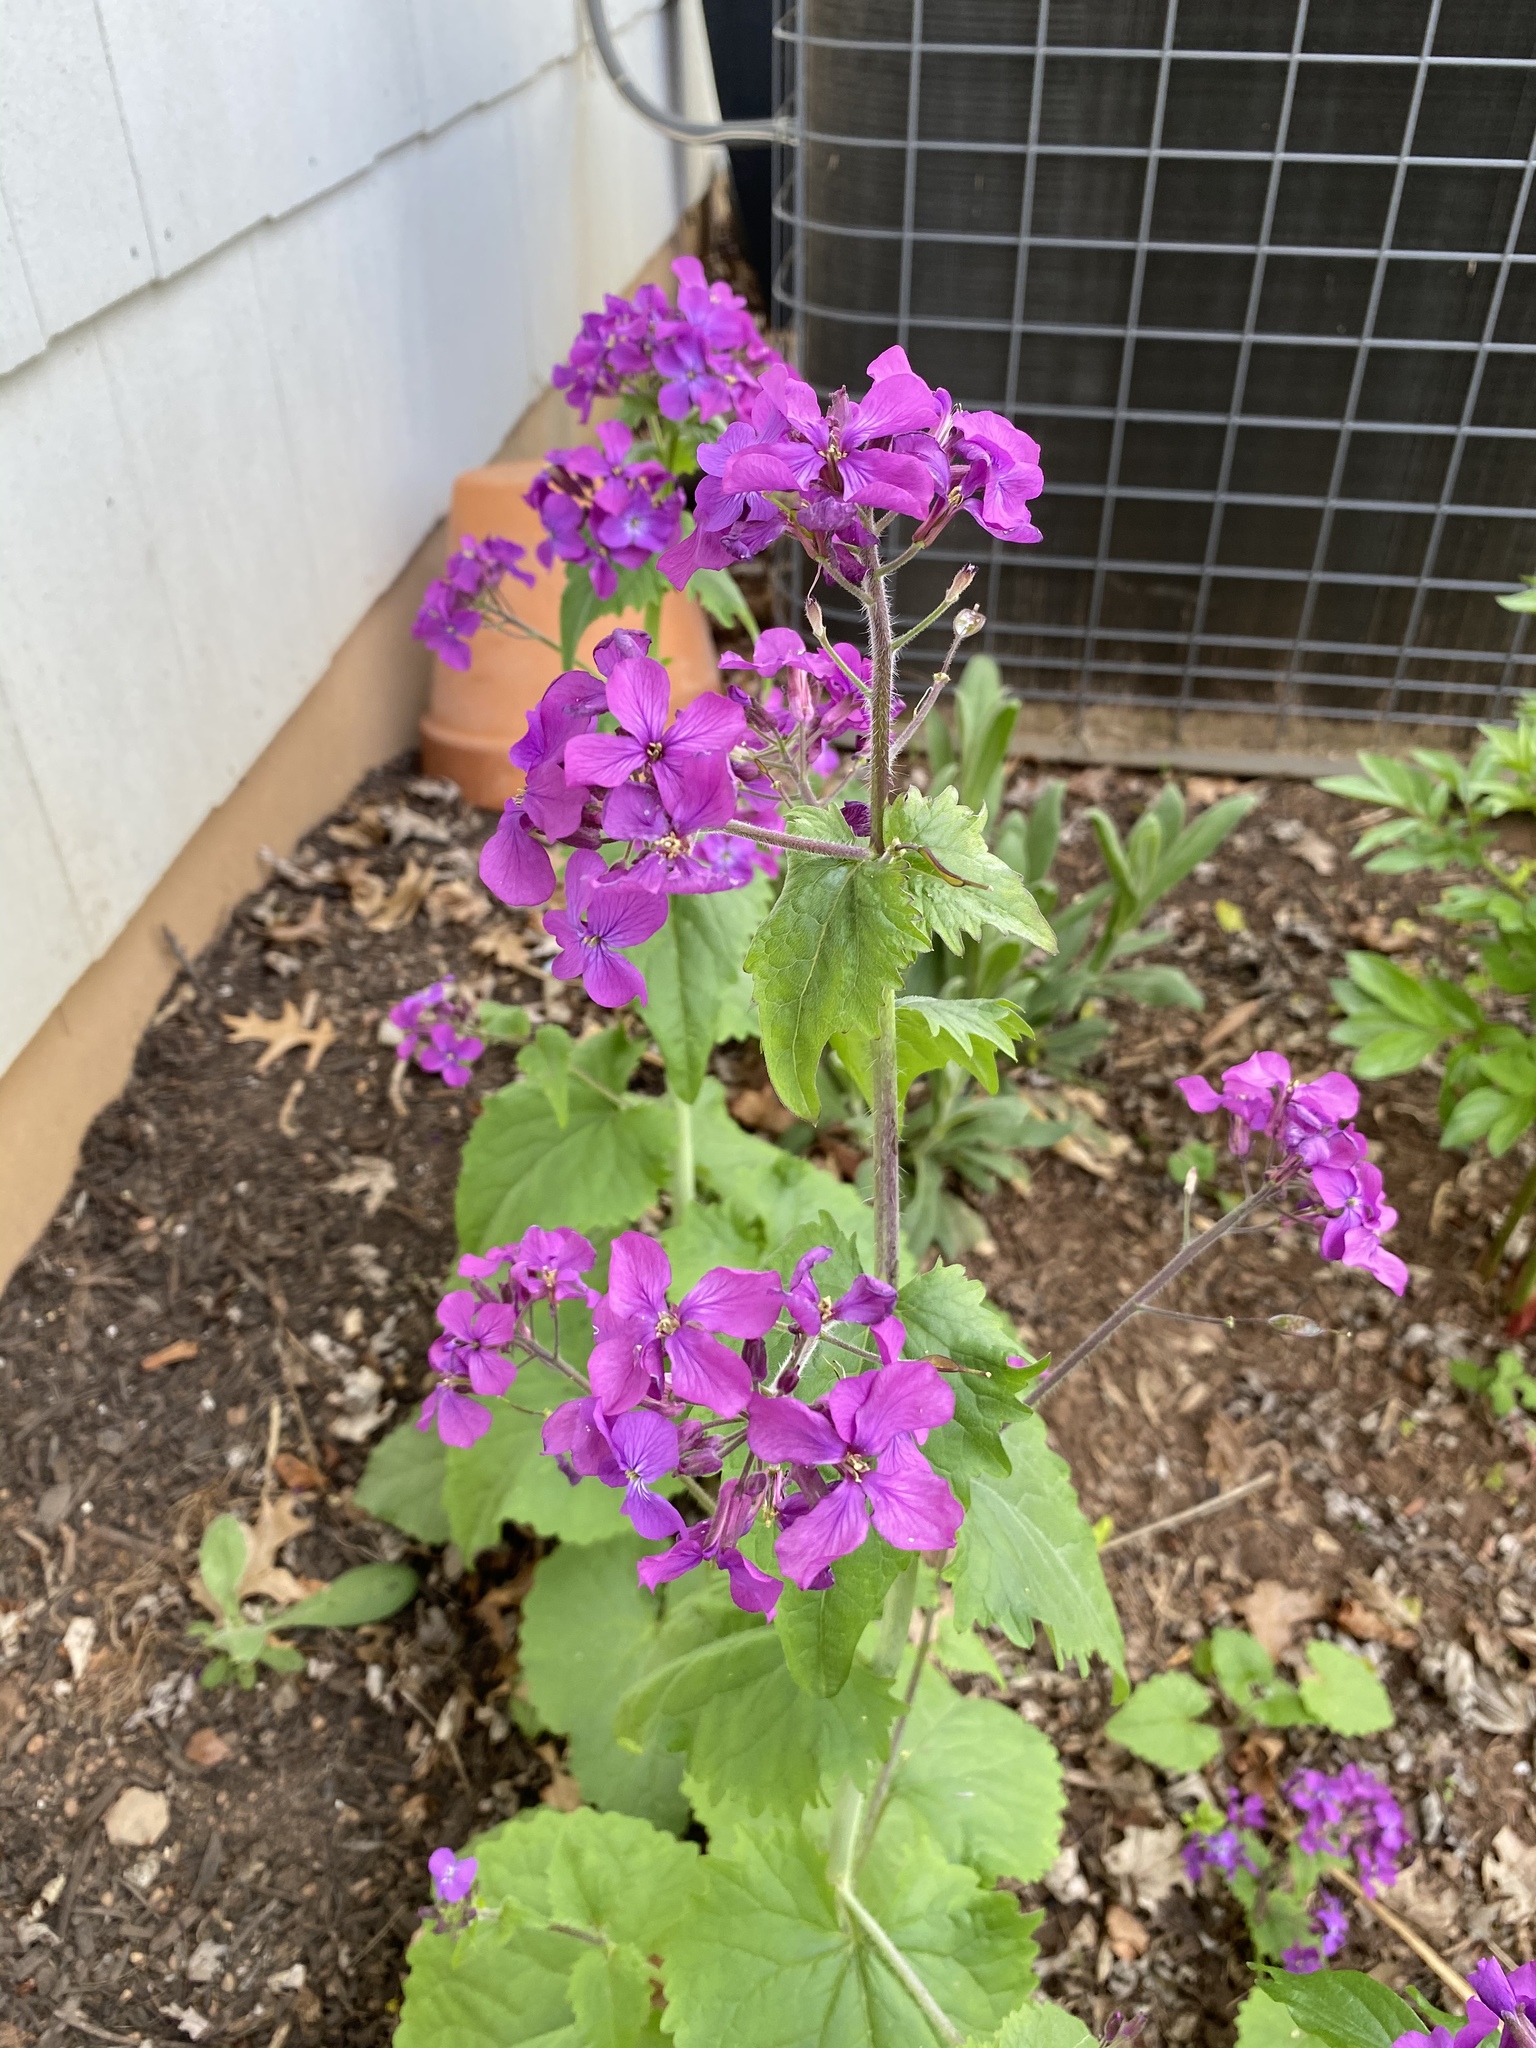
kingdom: Plantae
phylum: Tracheophyta
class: Magnoliopsida
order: Brassicales
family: Brassicaceae
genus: Lunaria
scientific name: Lunaria annua
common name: Honesty
